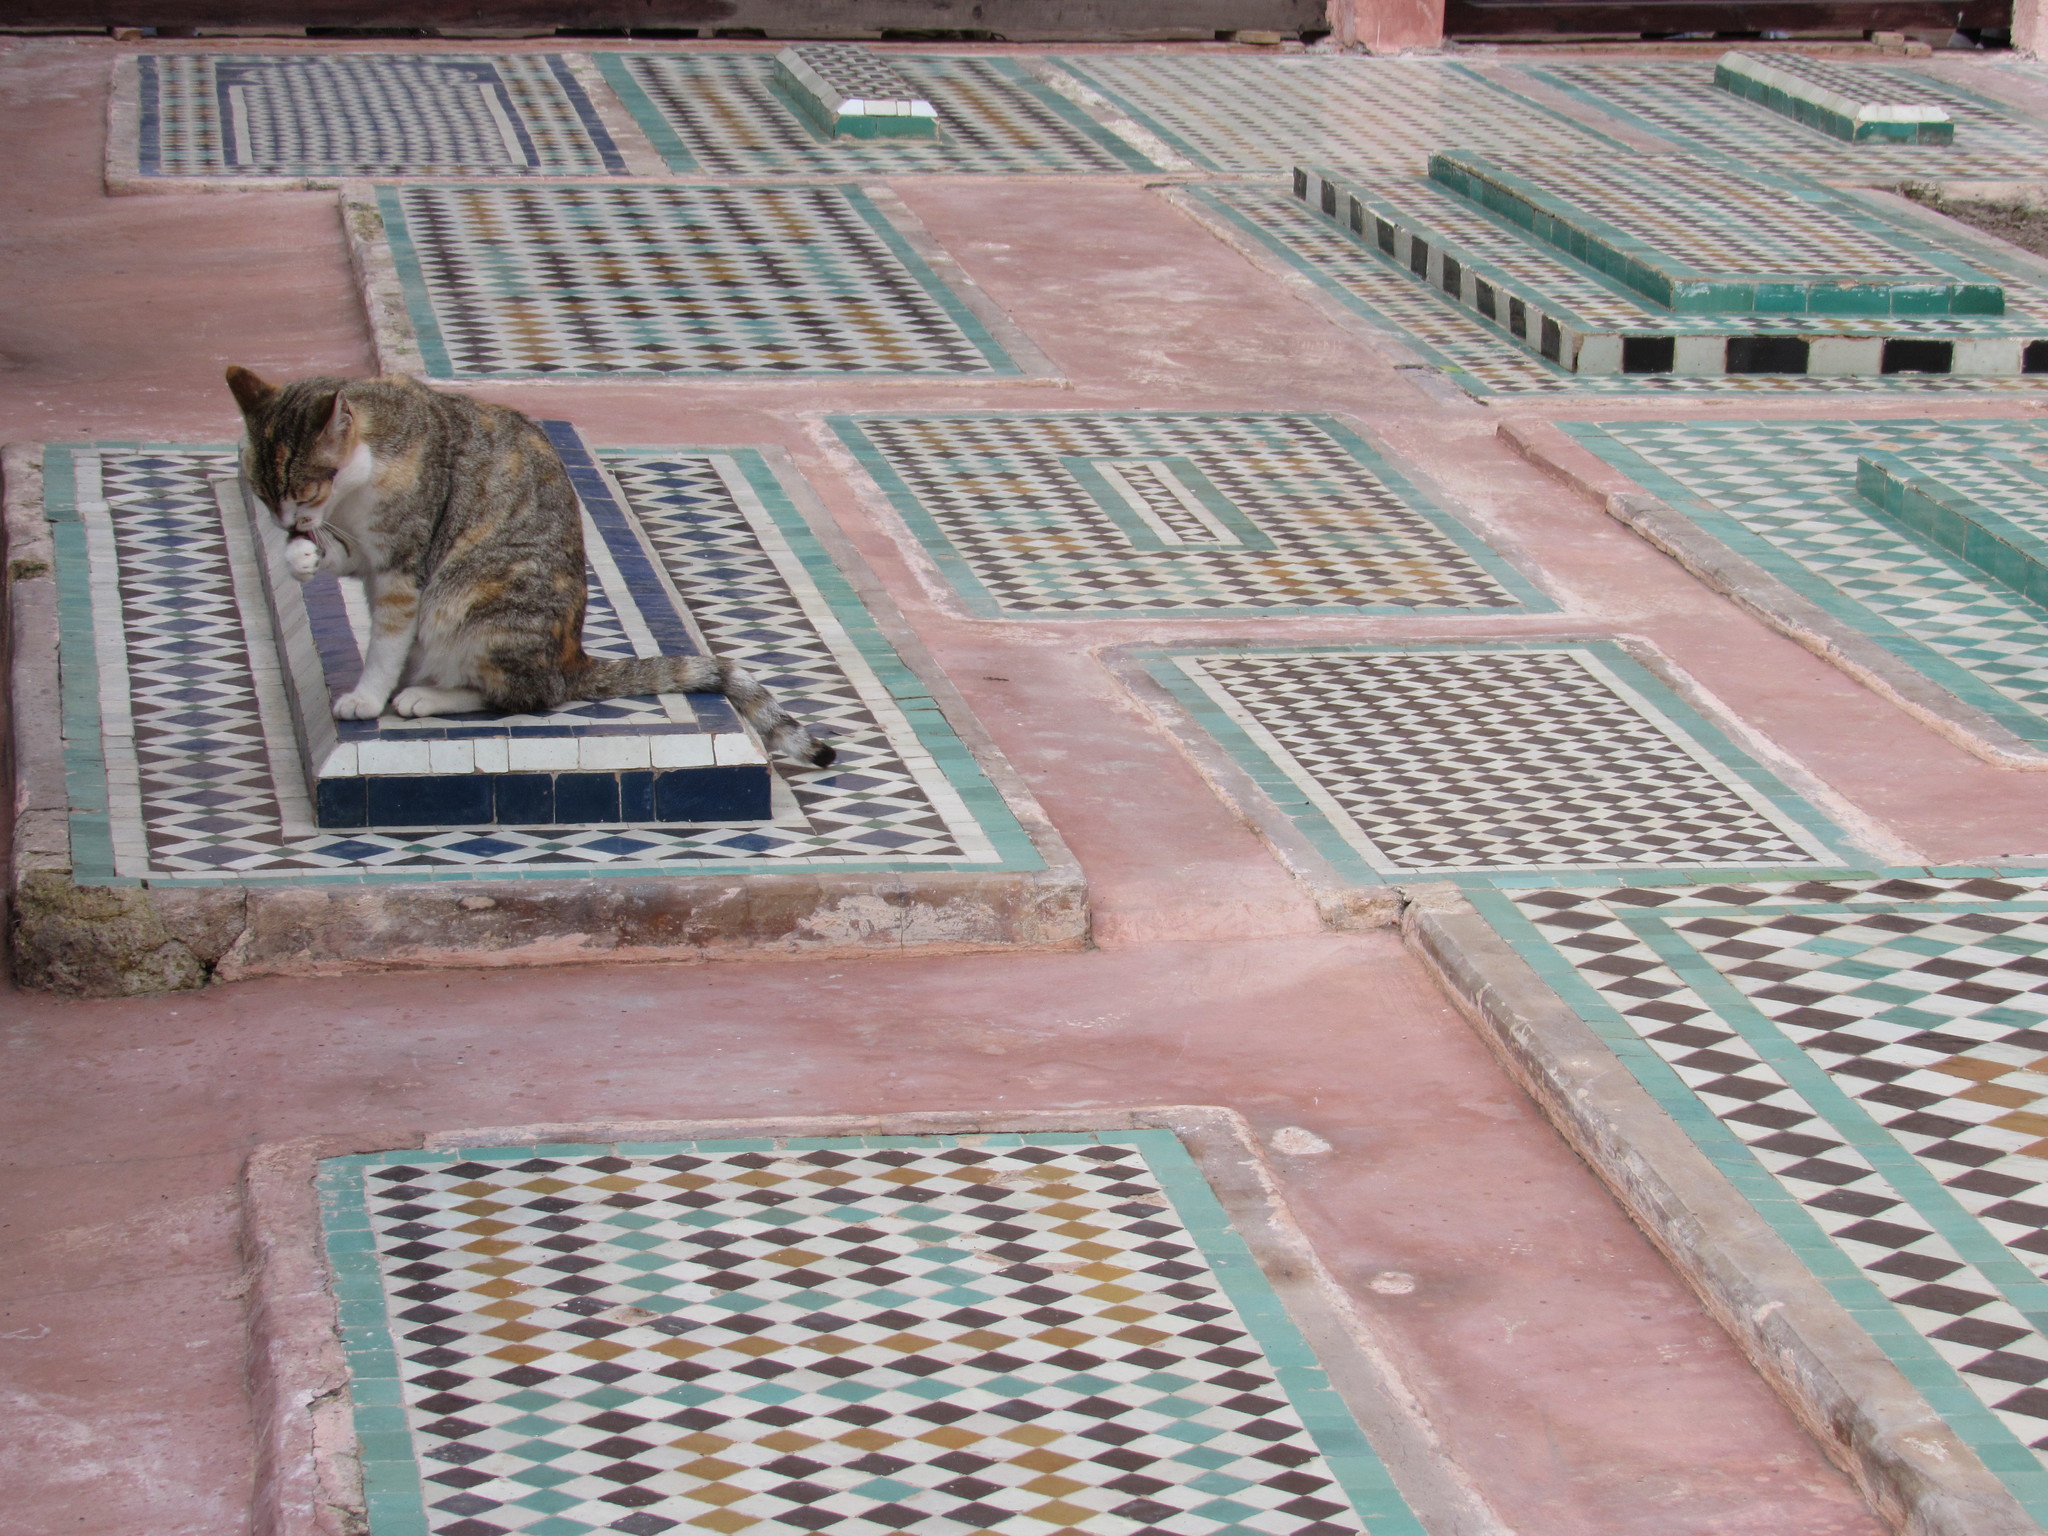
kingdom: Animalia
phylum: Chordata
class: Mammalia
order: Carnivora
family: Felidae
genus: Felis
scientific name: Felis catus
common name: Domestic cat
